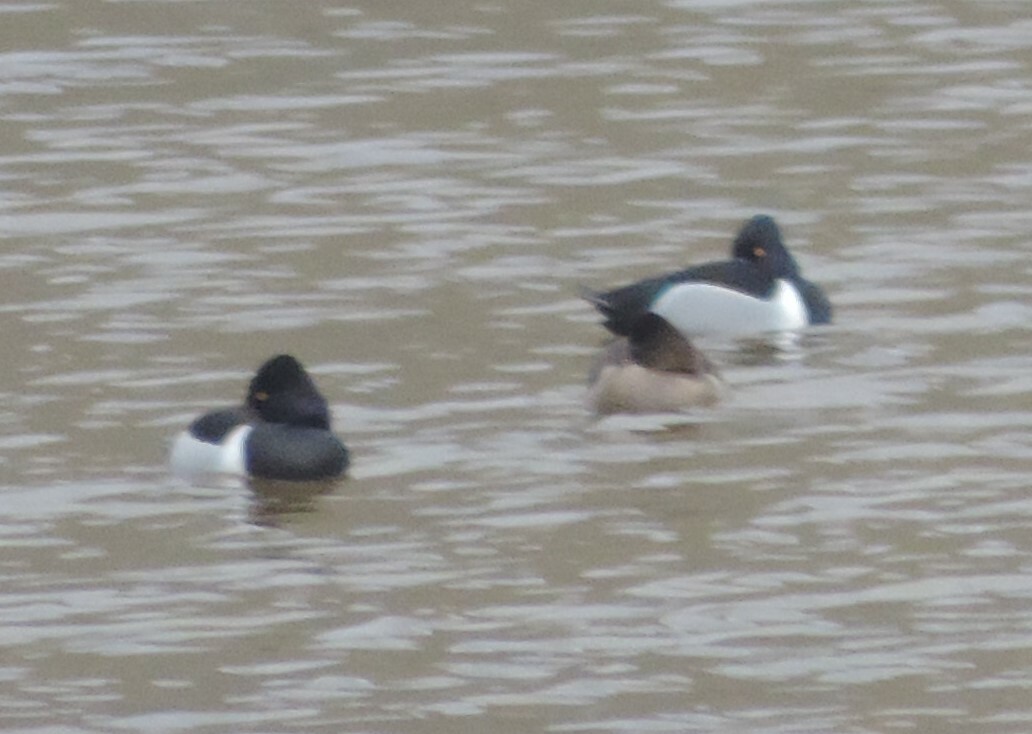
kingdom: Animalia
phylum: Chordata
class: Aves
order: Anseriformes
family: Anatidae
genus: Aythya
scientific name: Aythya collaris
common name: Ring-necked duck
